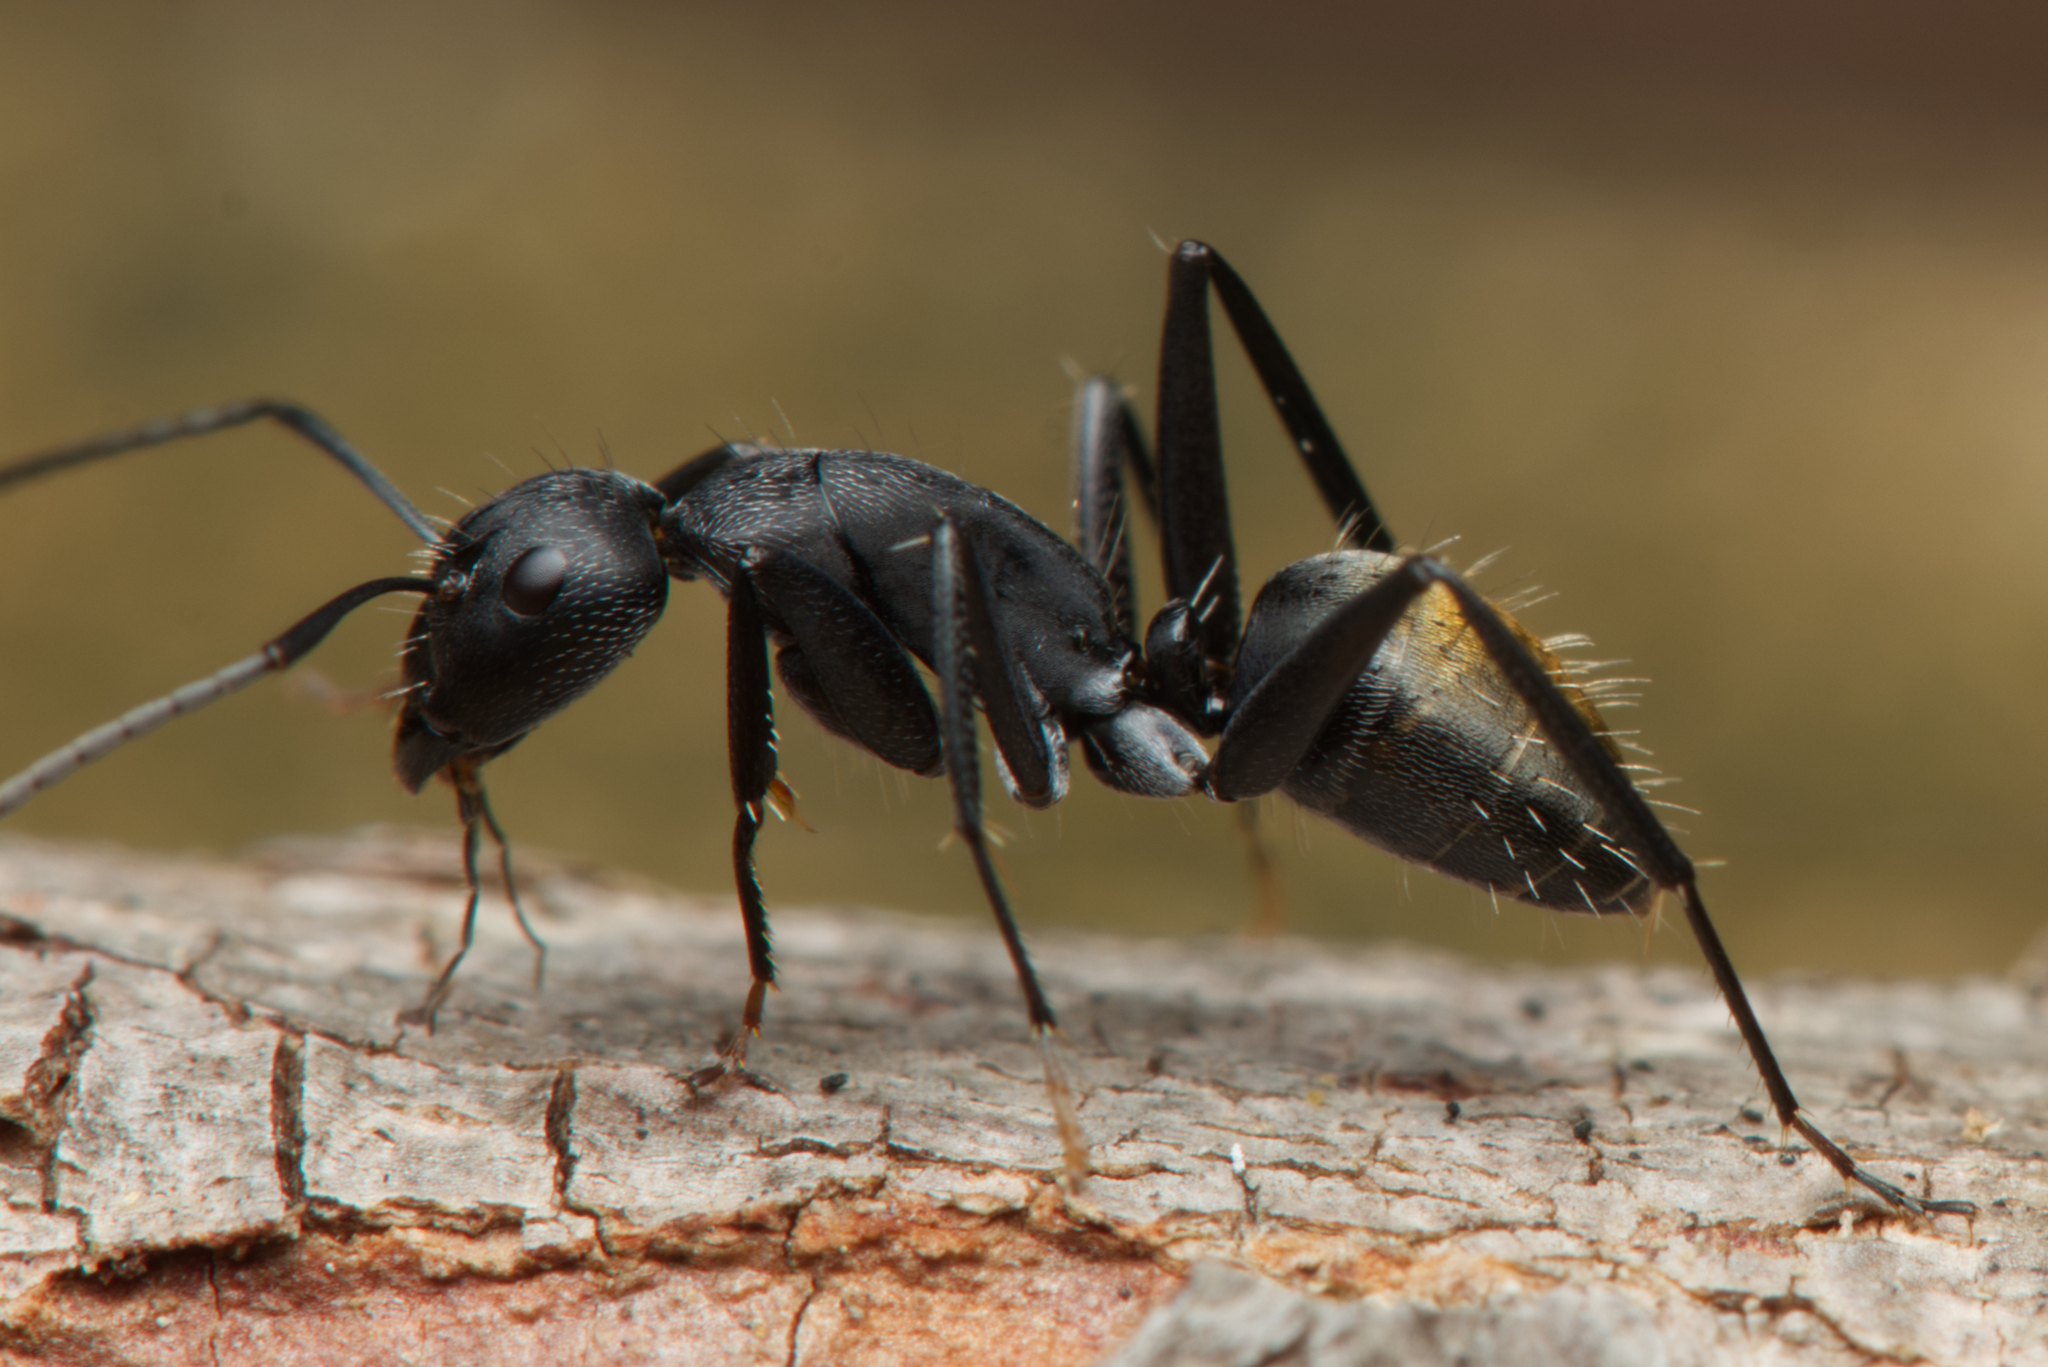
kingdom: Animalia
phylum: Arthropoda
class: Insecta
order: Hymenoptera
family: Formicidae
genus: Camponotus
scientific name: Camponotus aeneopilosus
